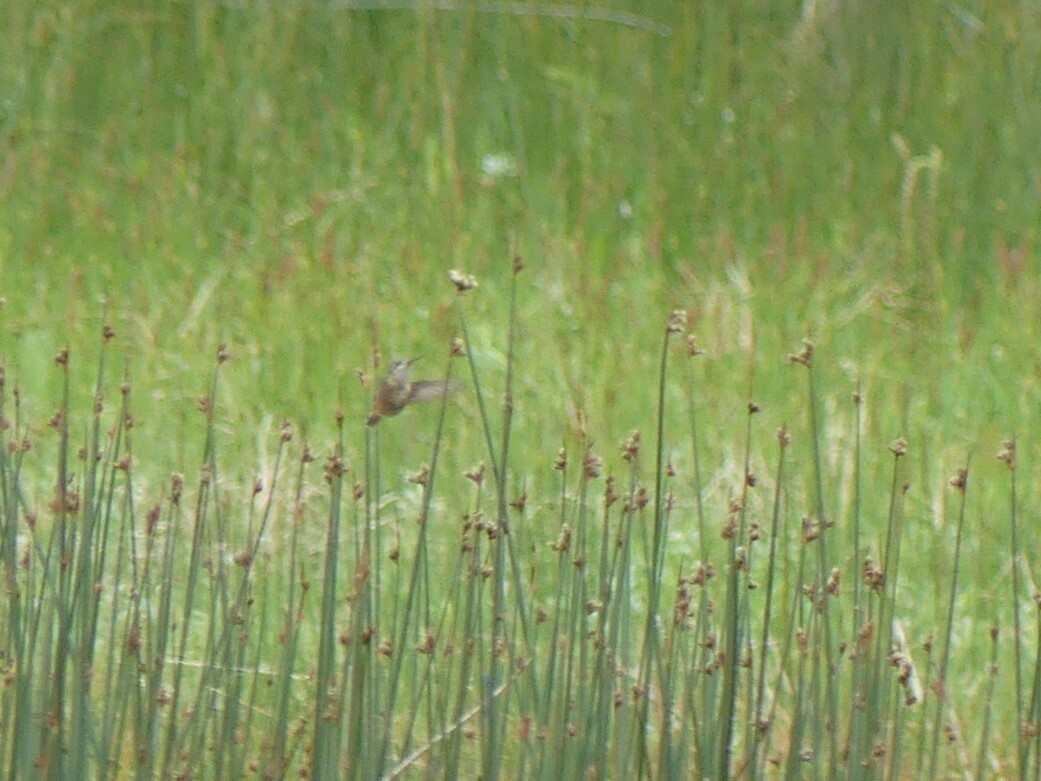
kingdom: Animalia
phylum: Chordata
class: Aves
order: Apodiformes
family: Trochilidae
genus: Selasphorus
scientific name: Selasphorus rufus
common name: Rufous hummingbird
